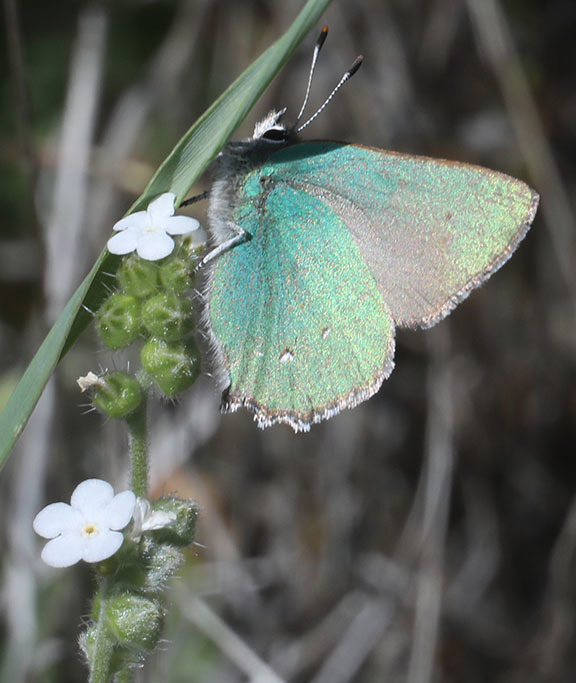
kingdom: Animalia
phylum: Arthropoda
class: Insecta
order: Lepidoptera
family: Lycaenidae
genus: Callophrys
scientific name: Callophrys dumetorum
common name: Bramble hairstreak
